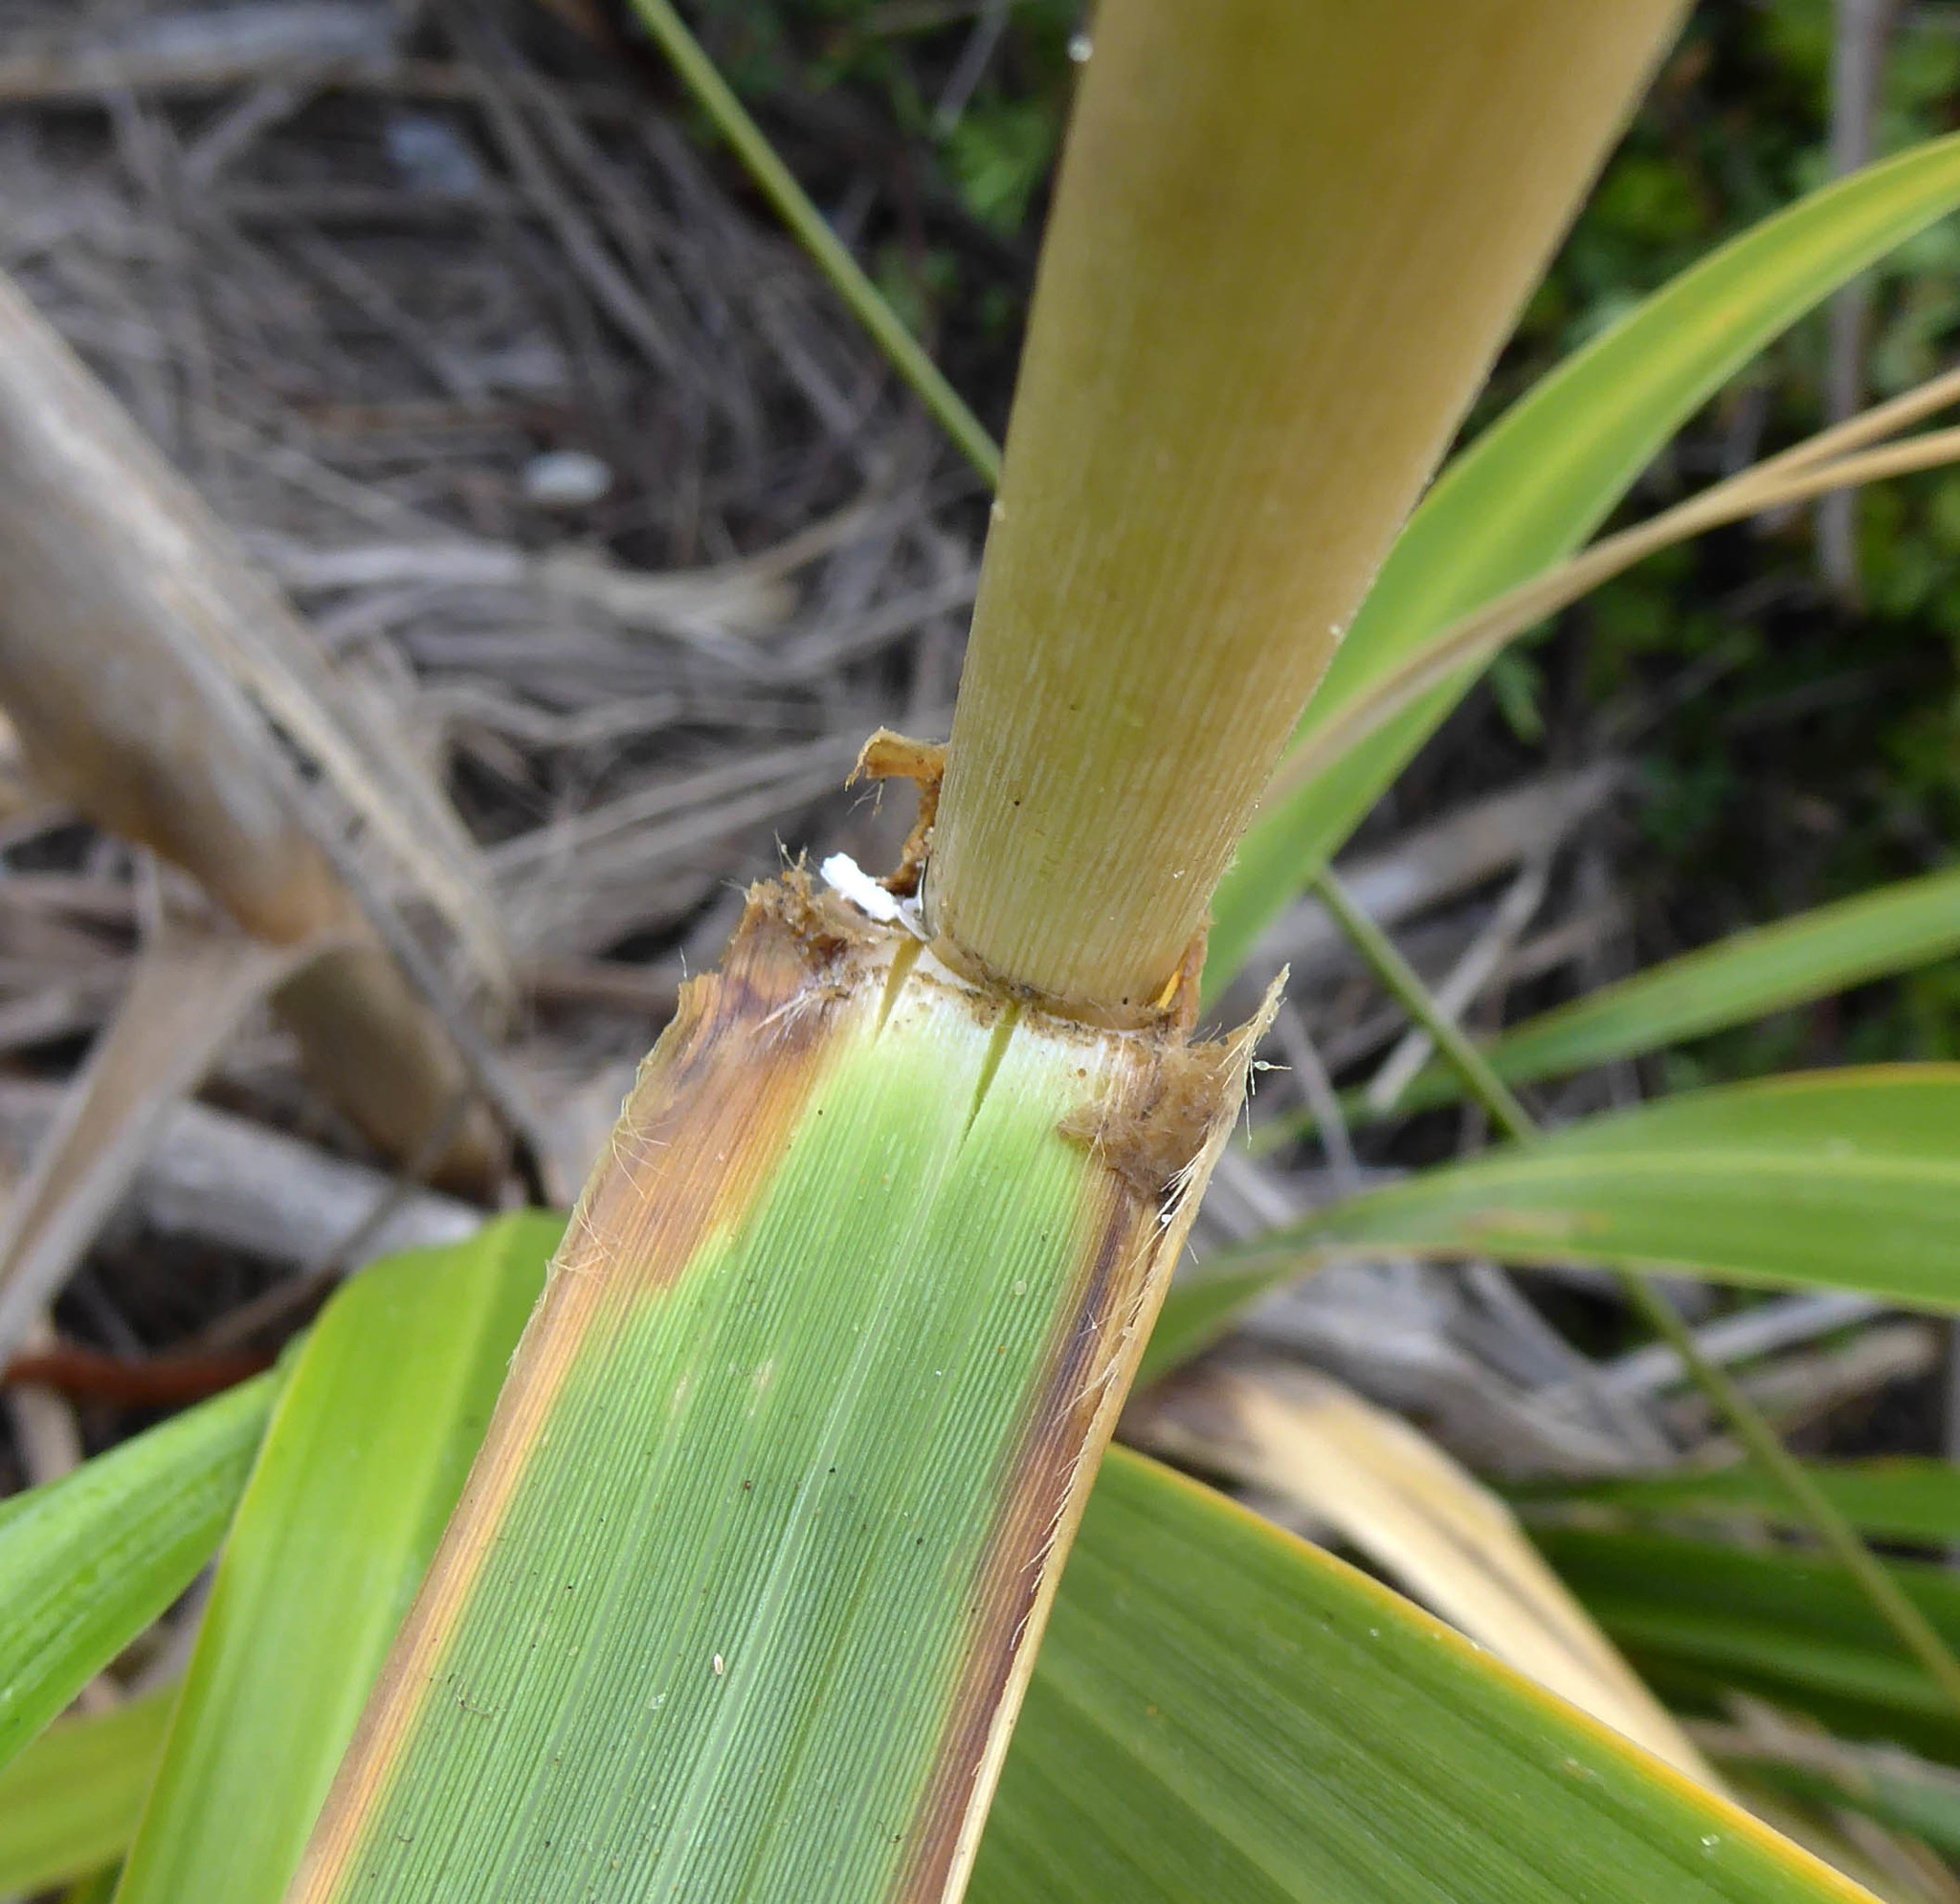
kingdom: Plantae
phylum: Tracheophyta
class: Liliopsida
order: Poales
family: Poaceae
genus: Austroderia
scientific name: Austroderia splendens
